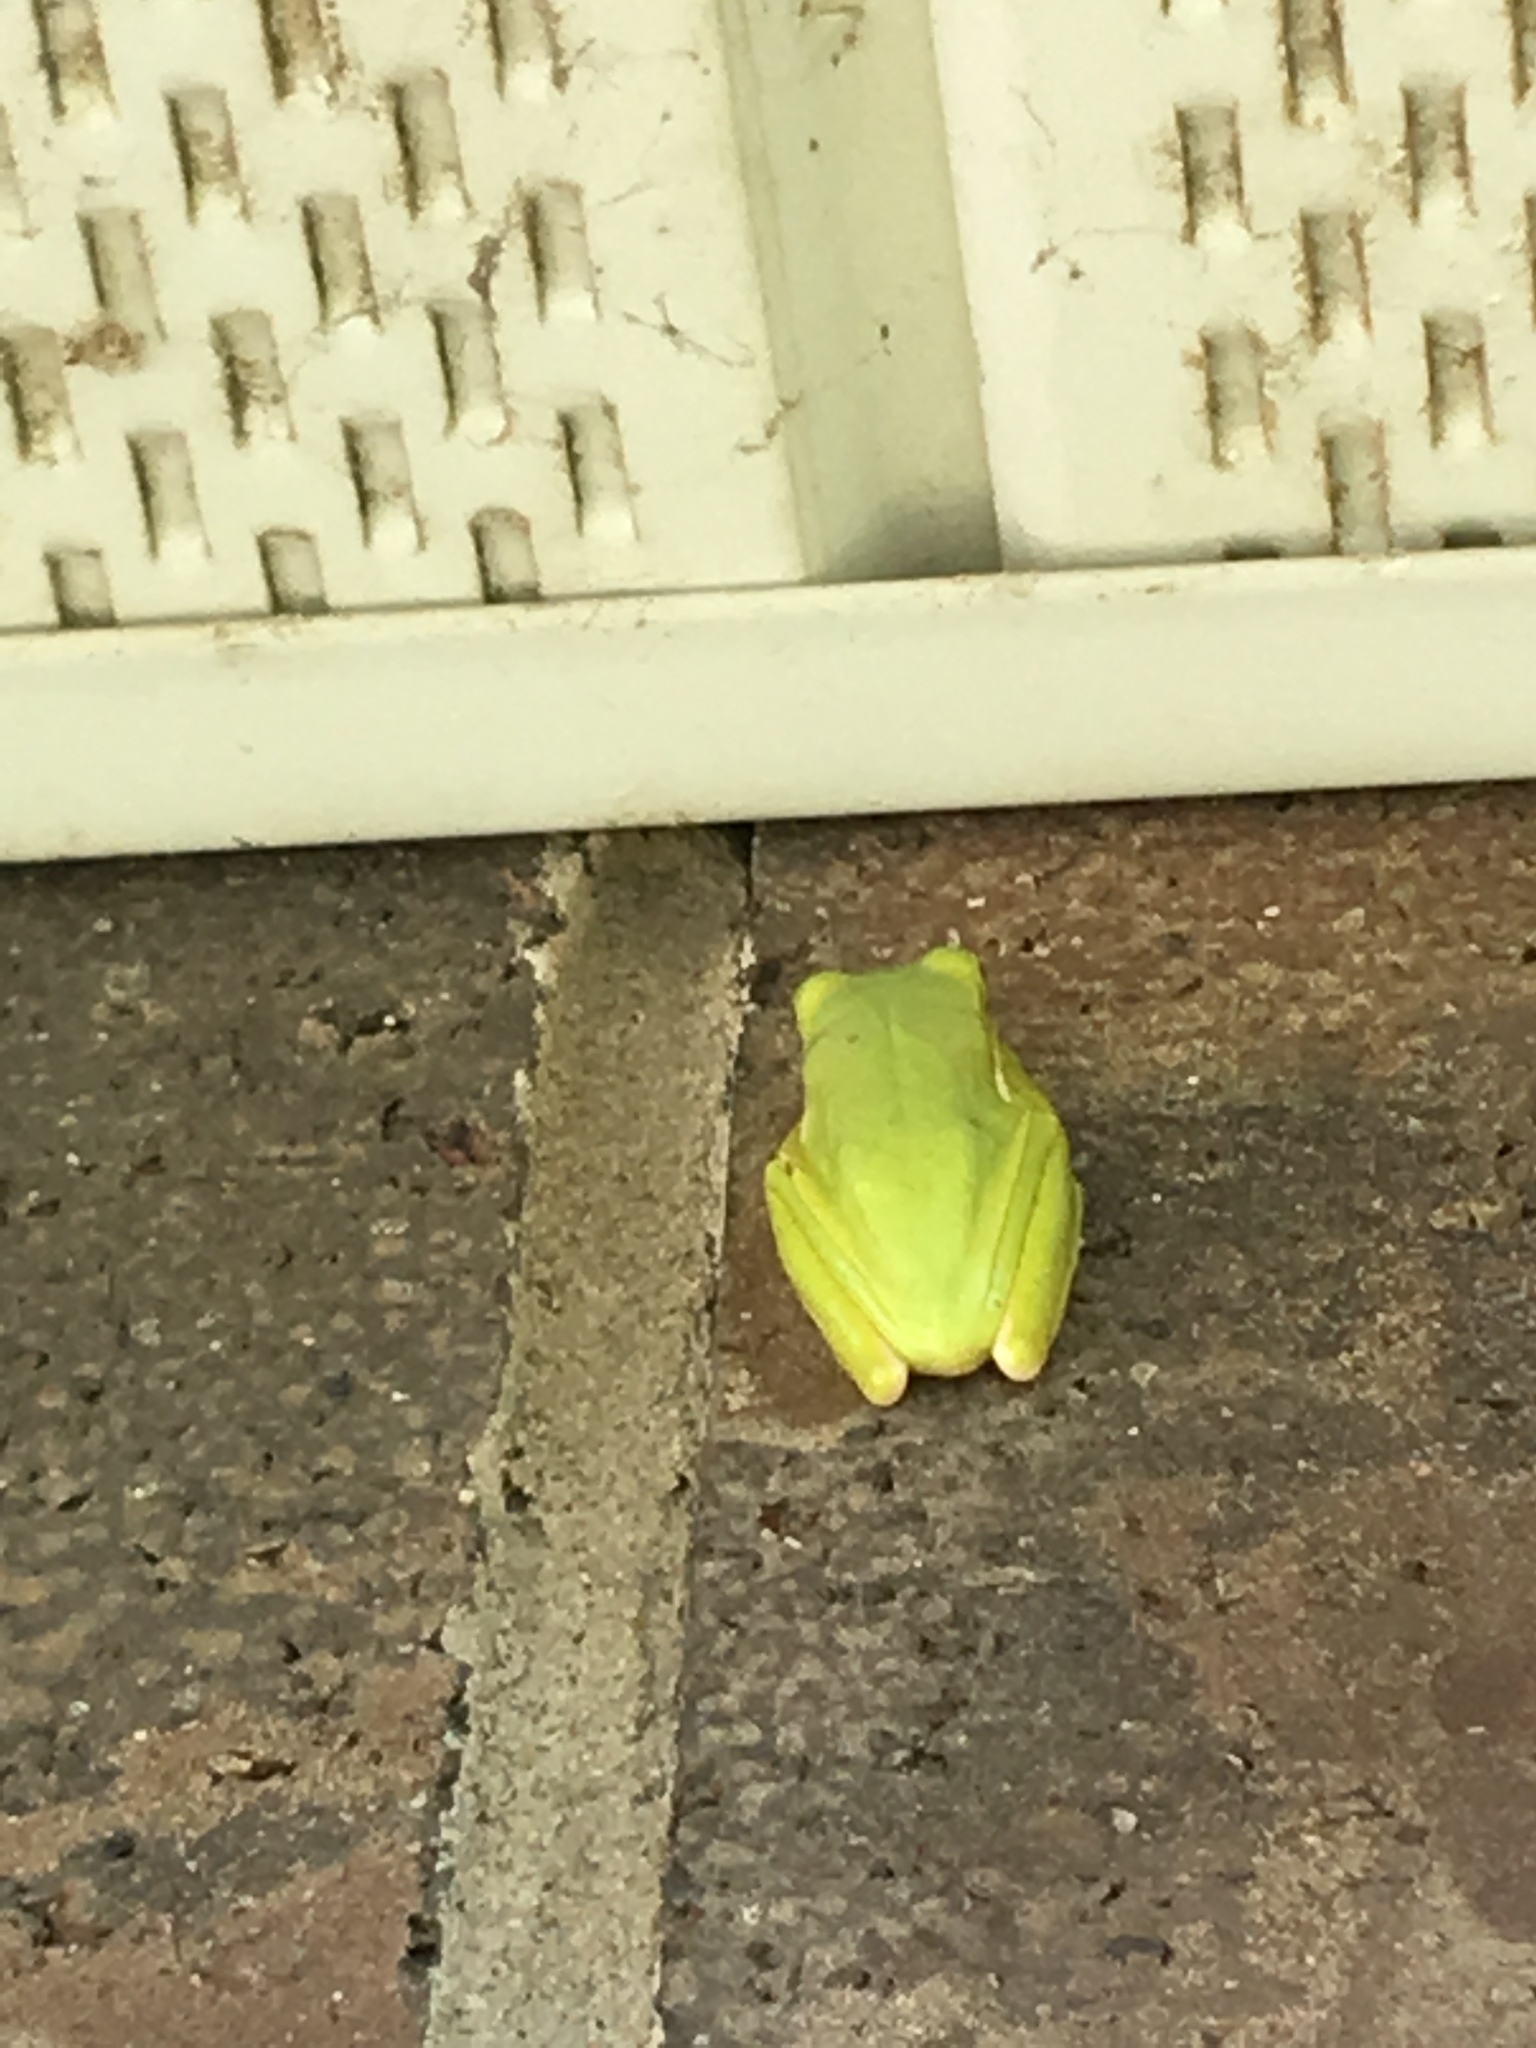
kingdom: Animalia
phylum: Chordata
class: Amphibia
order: Anura
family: Hylidae
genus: Dryophytes
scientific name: Dryophytes cinereus
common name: Green treefrog
